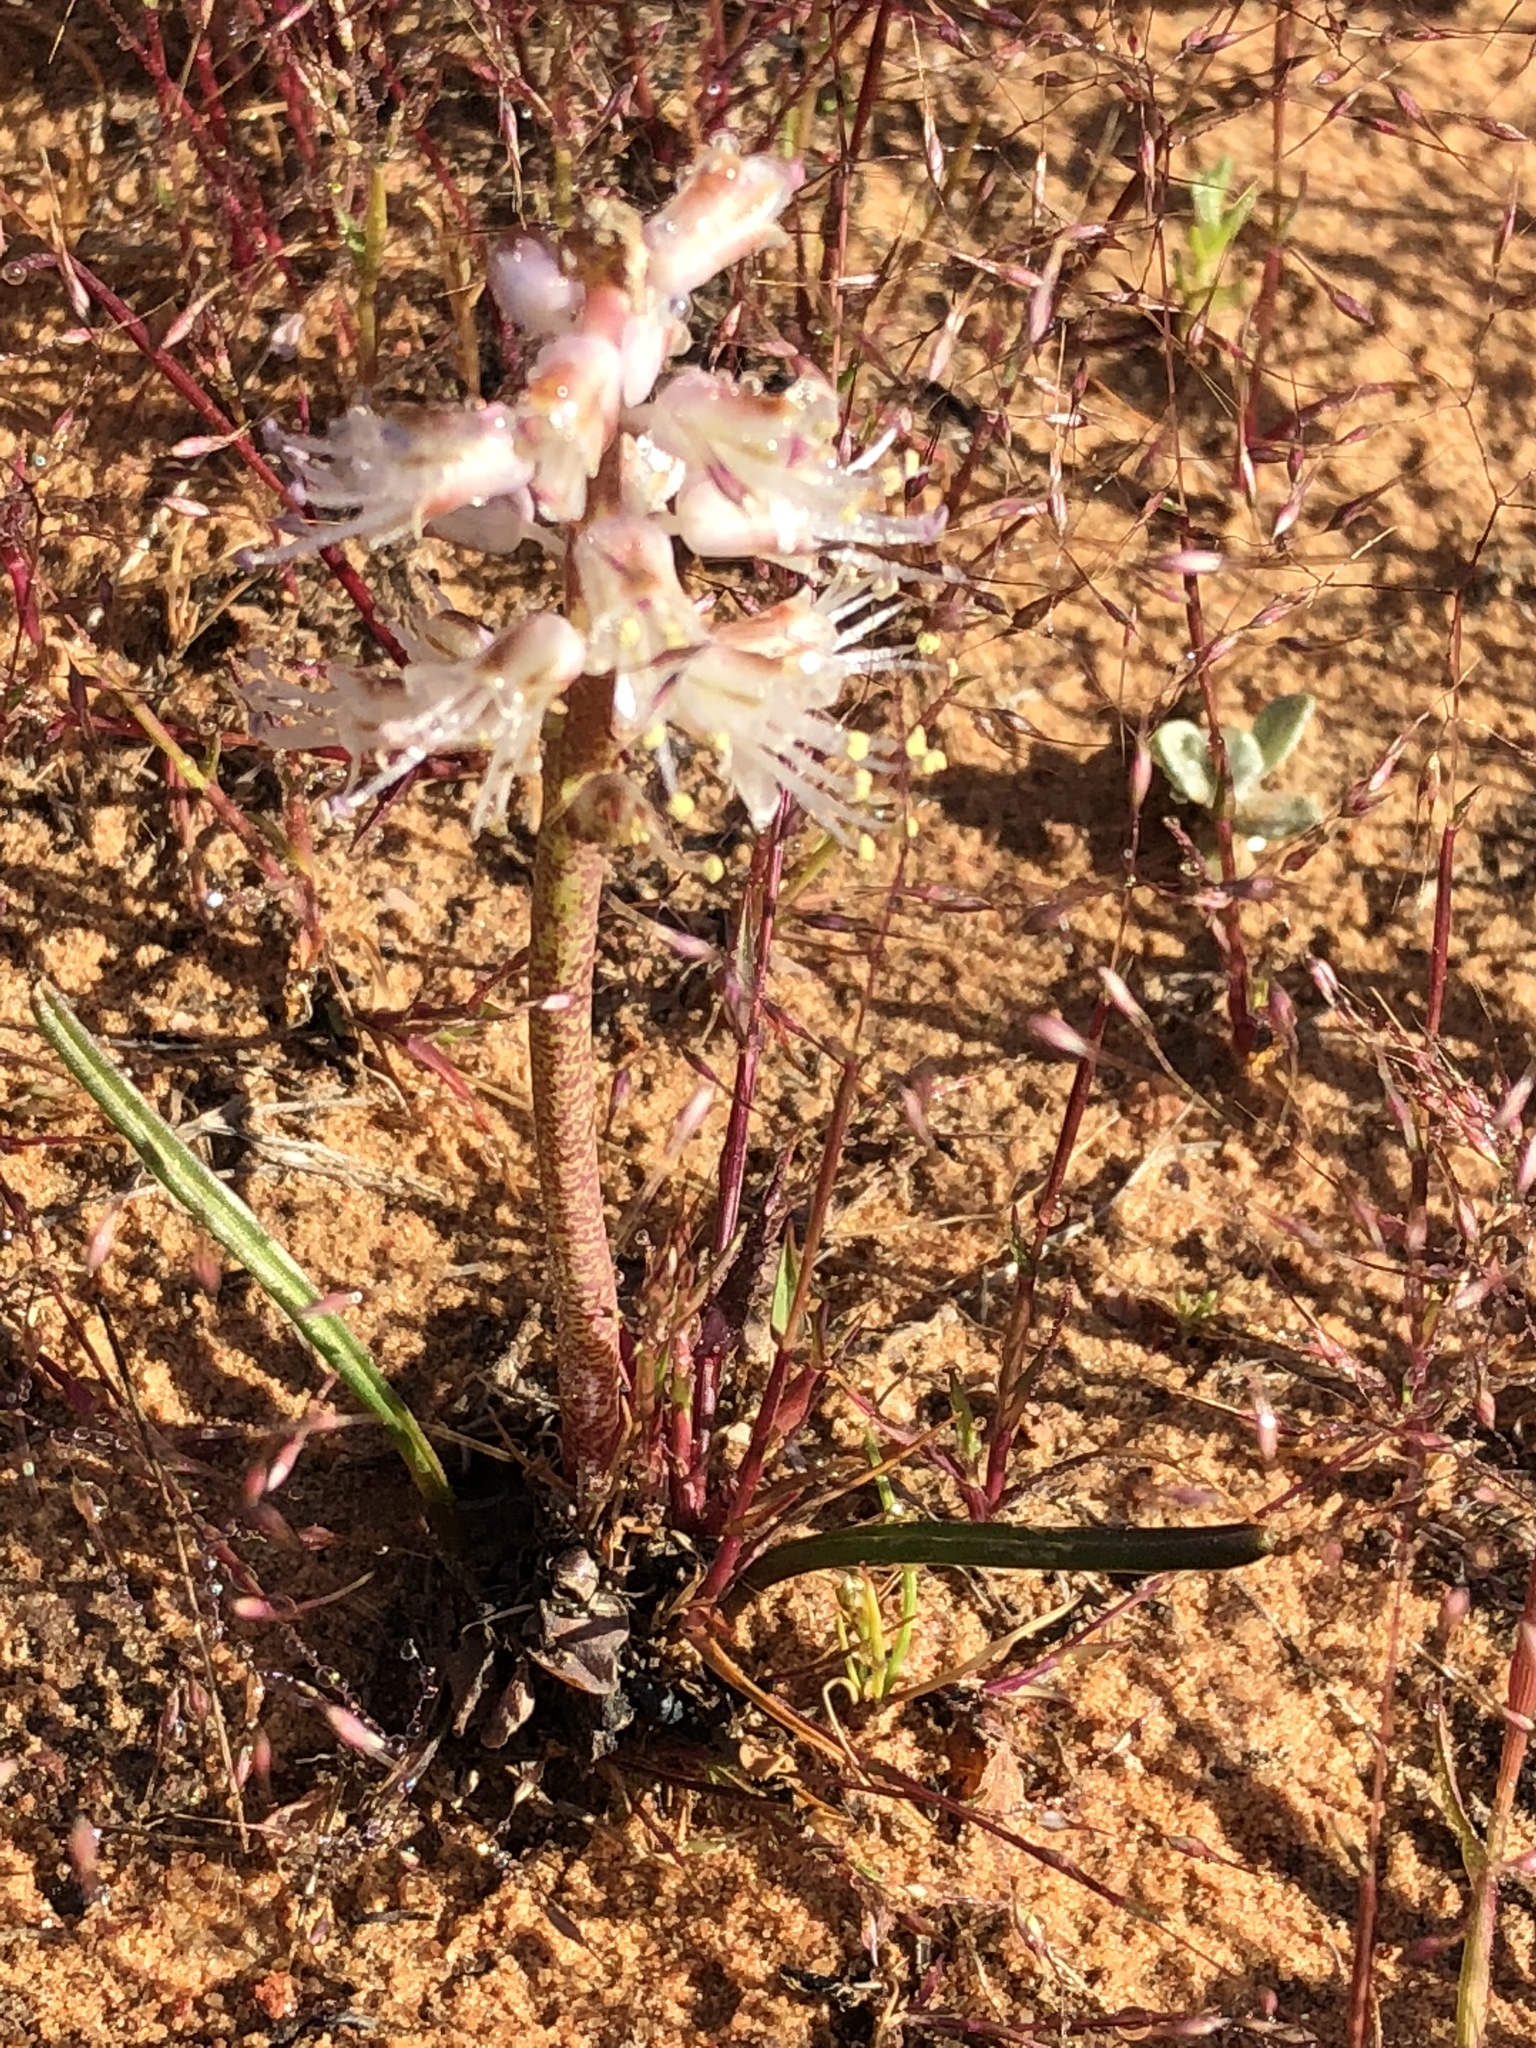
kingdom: Plantae
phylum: Tracheophyta
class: Liliopsida
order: Asparagales
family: Asparagaceae
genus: Lachenalia
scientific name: Lachenalia juncifolia
